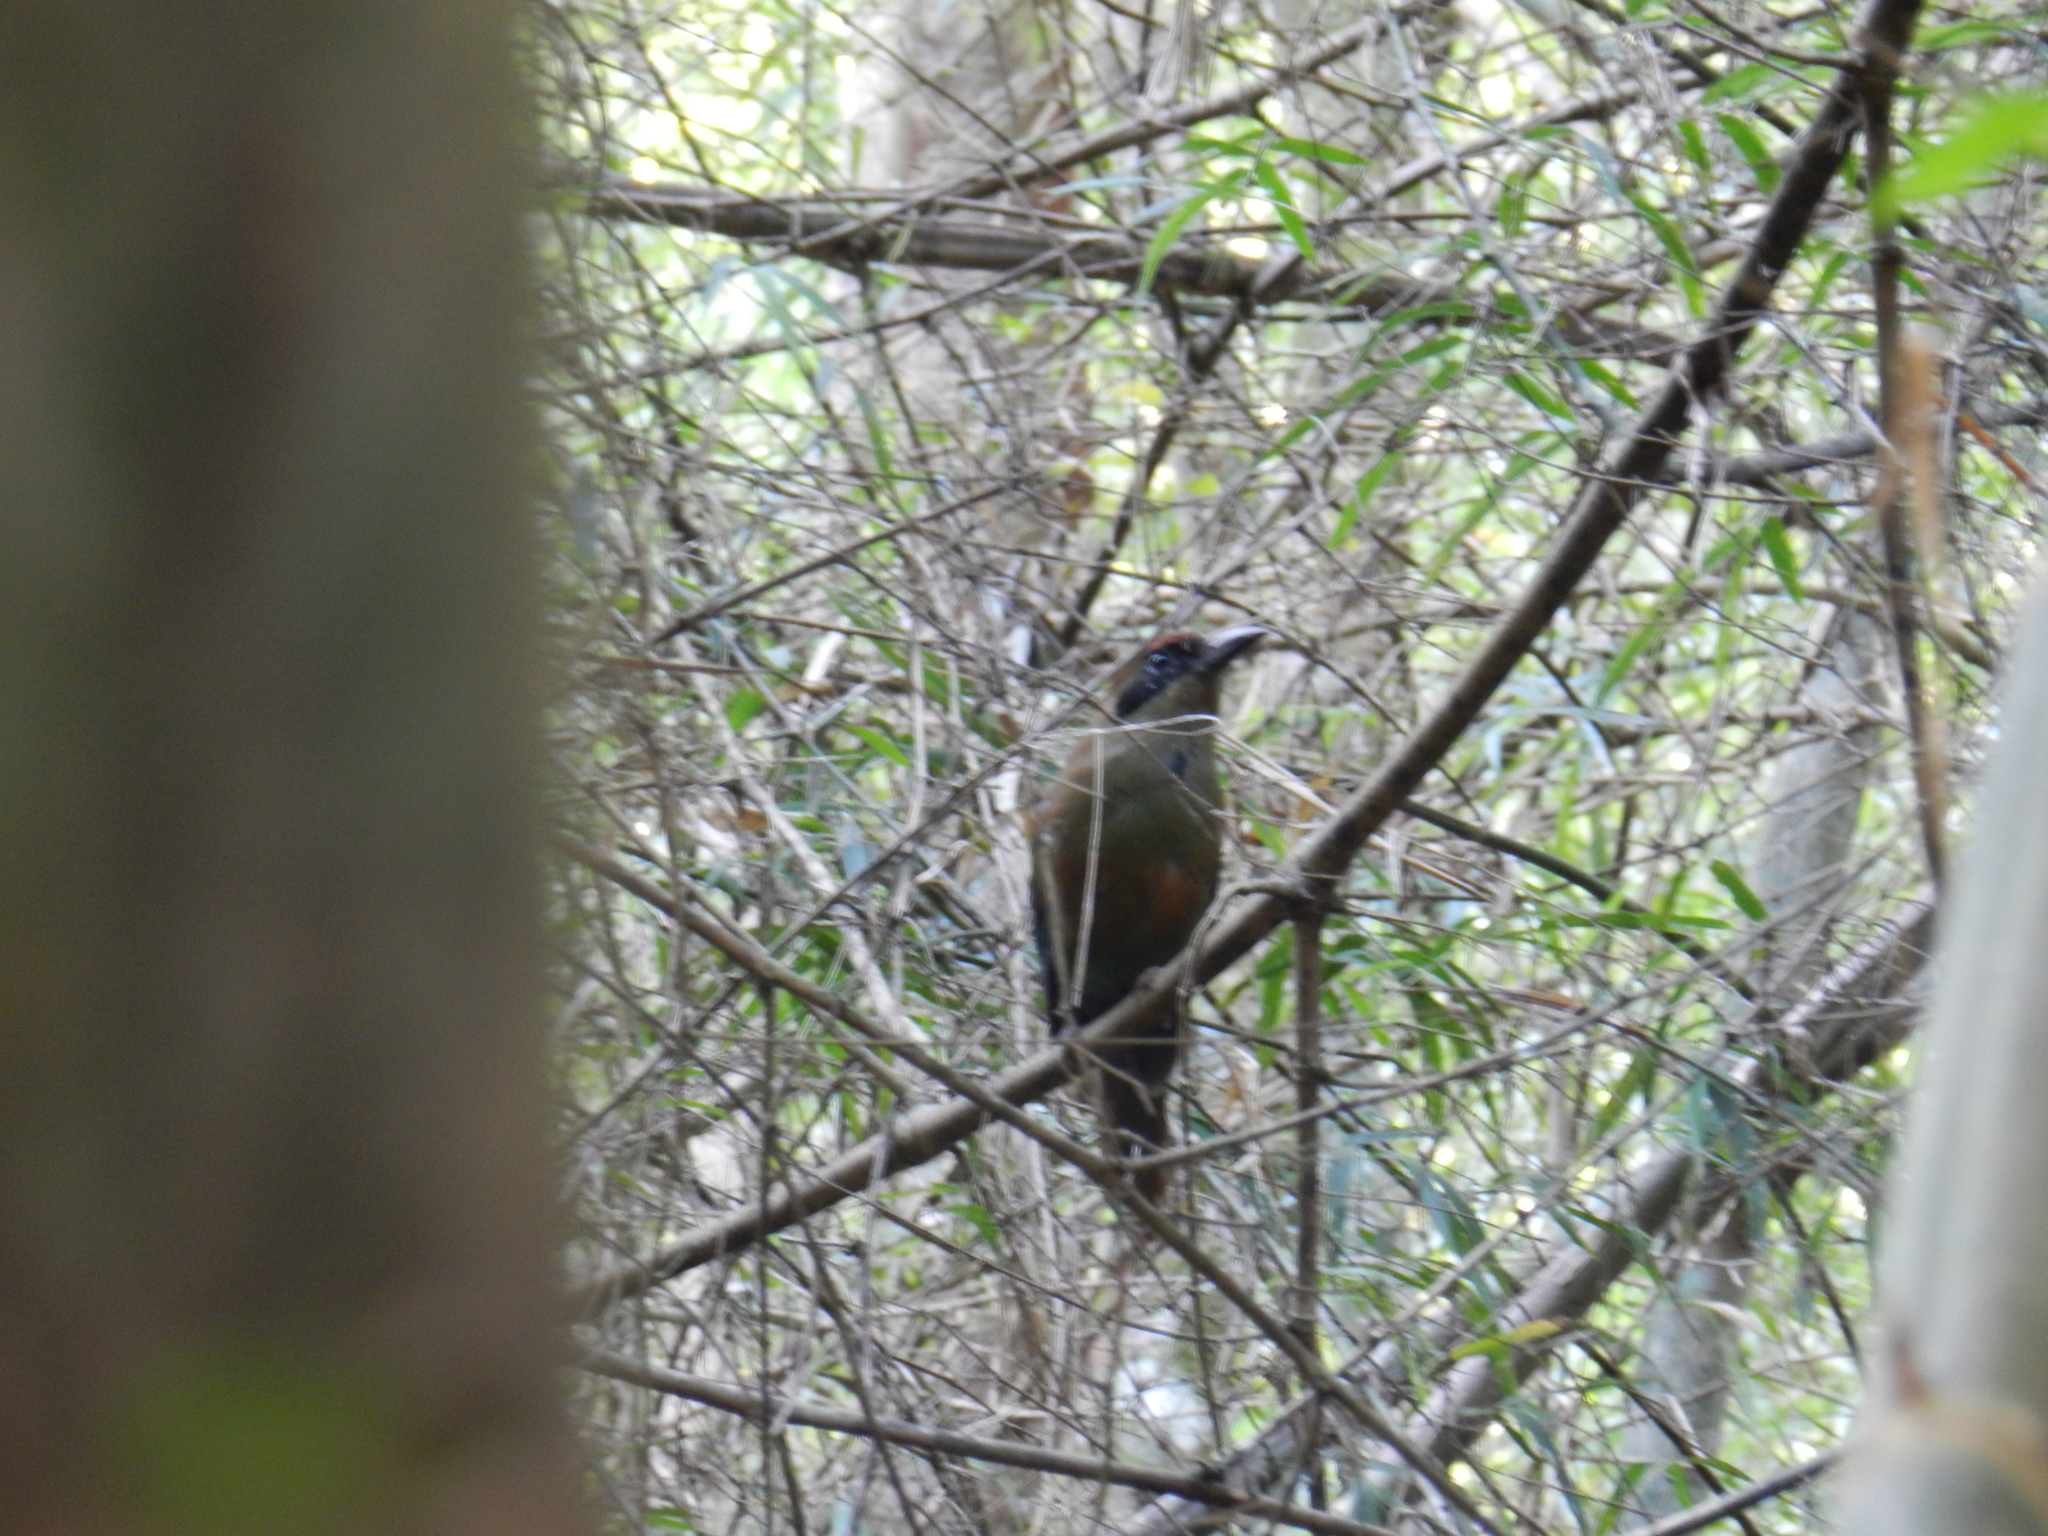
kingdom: Animalia
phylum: Chordata
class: Aves
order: Coraciiformes
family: Momotidae
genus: Baryphthengus
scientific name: Baryphthengus ruficapillus
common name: Rufous-capped motmot
